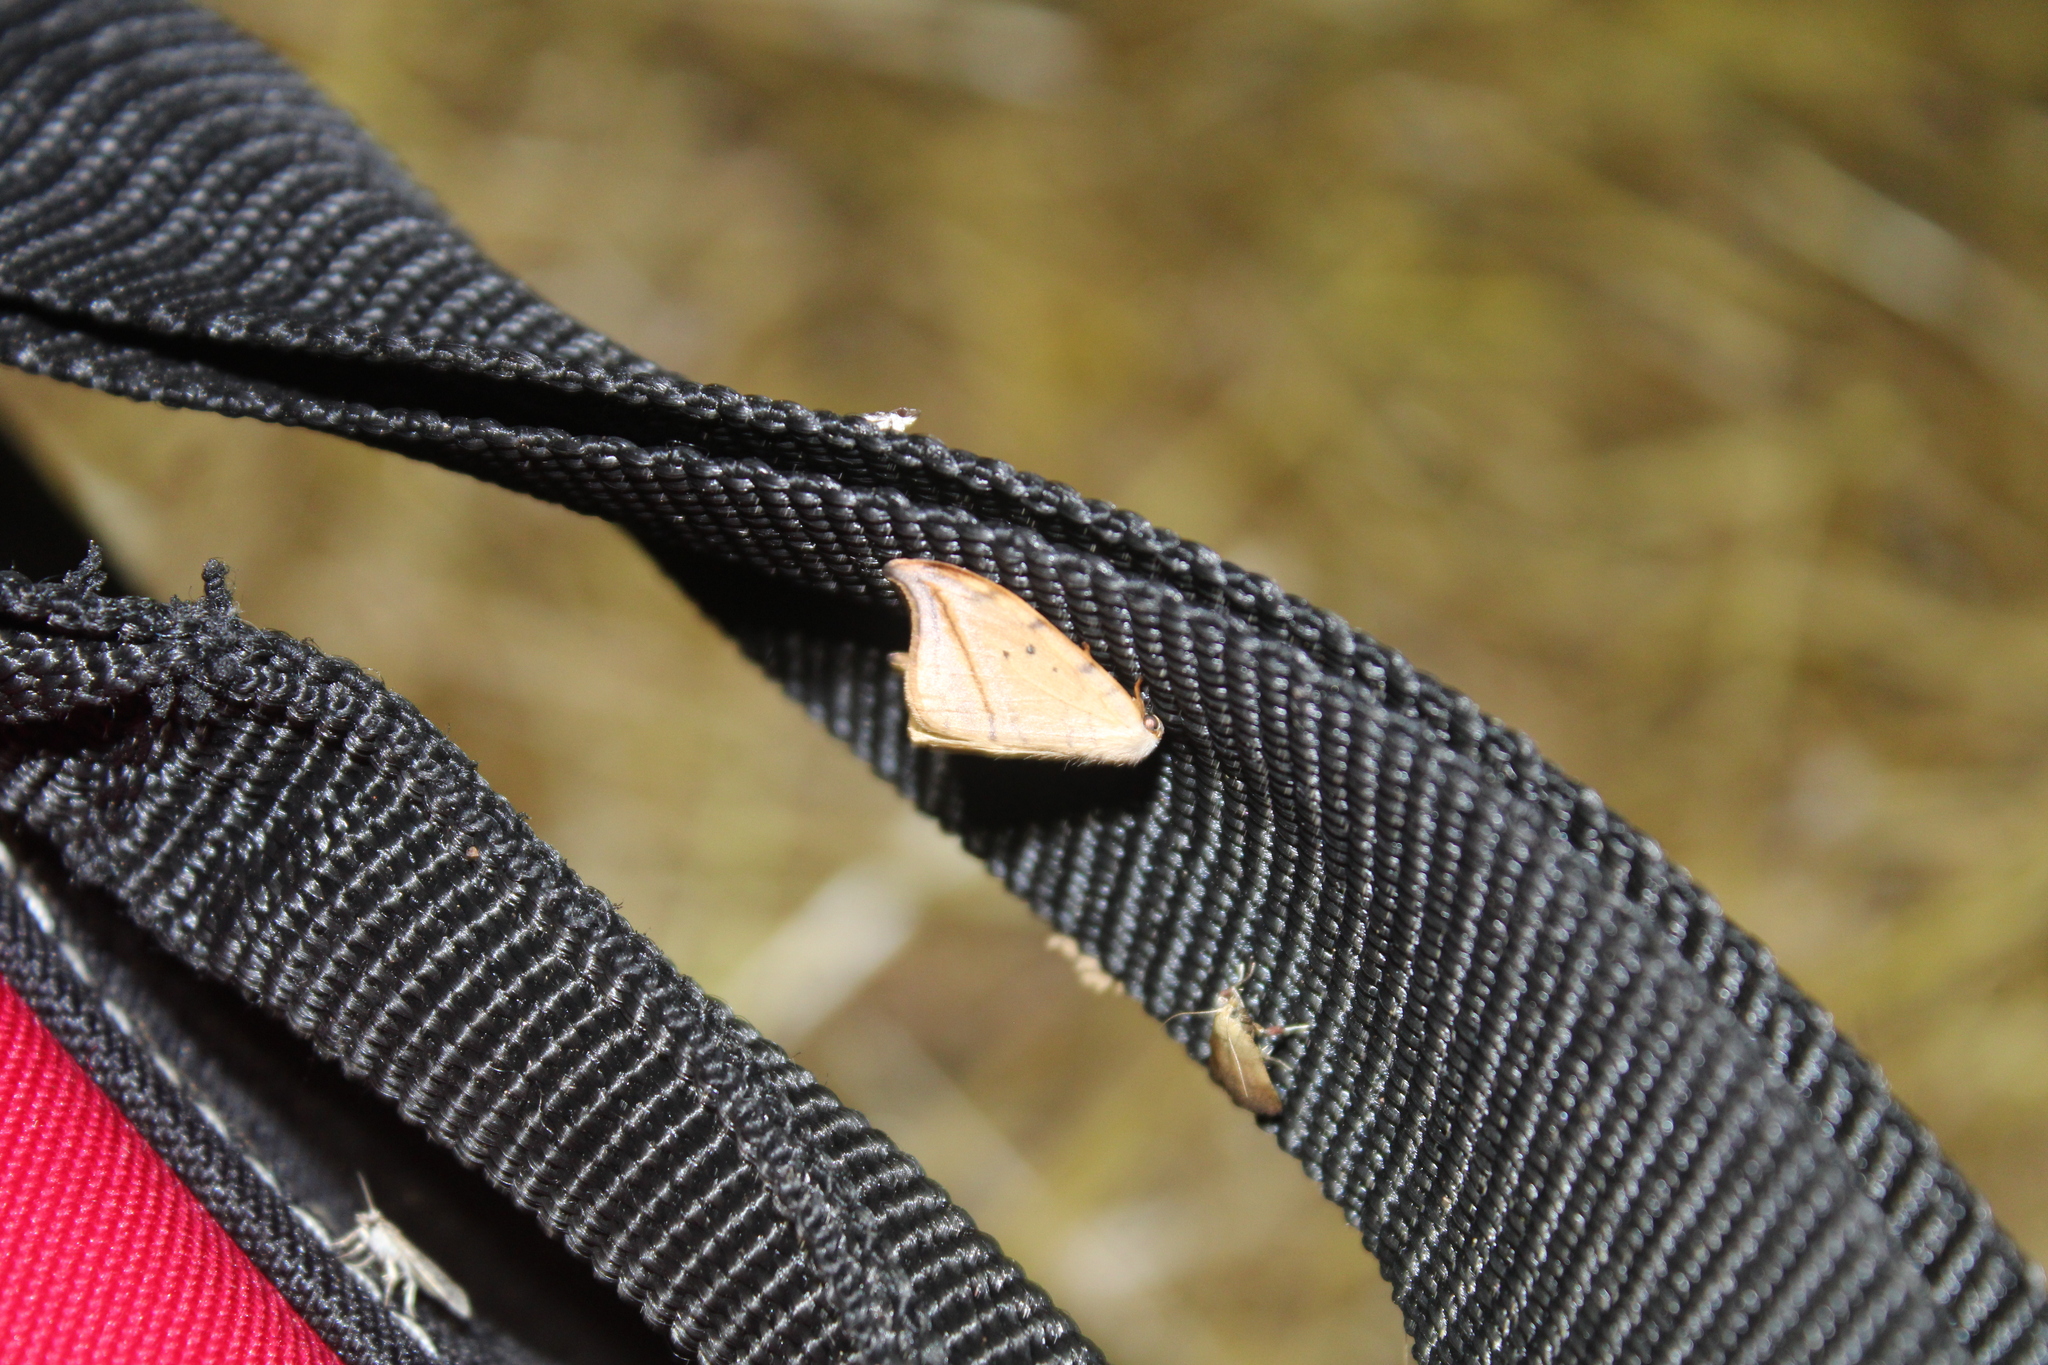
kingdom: Animalia
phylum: Arthropoda
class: Insecta
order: Lepidoptera
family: Drepanidae
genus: Drepana
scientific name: Drepana arcuata
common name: Arched hooktip moth
